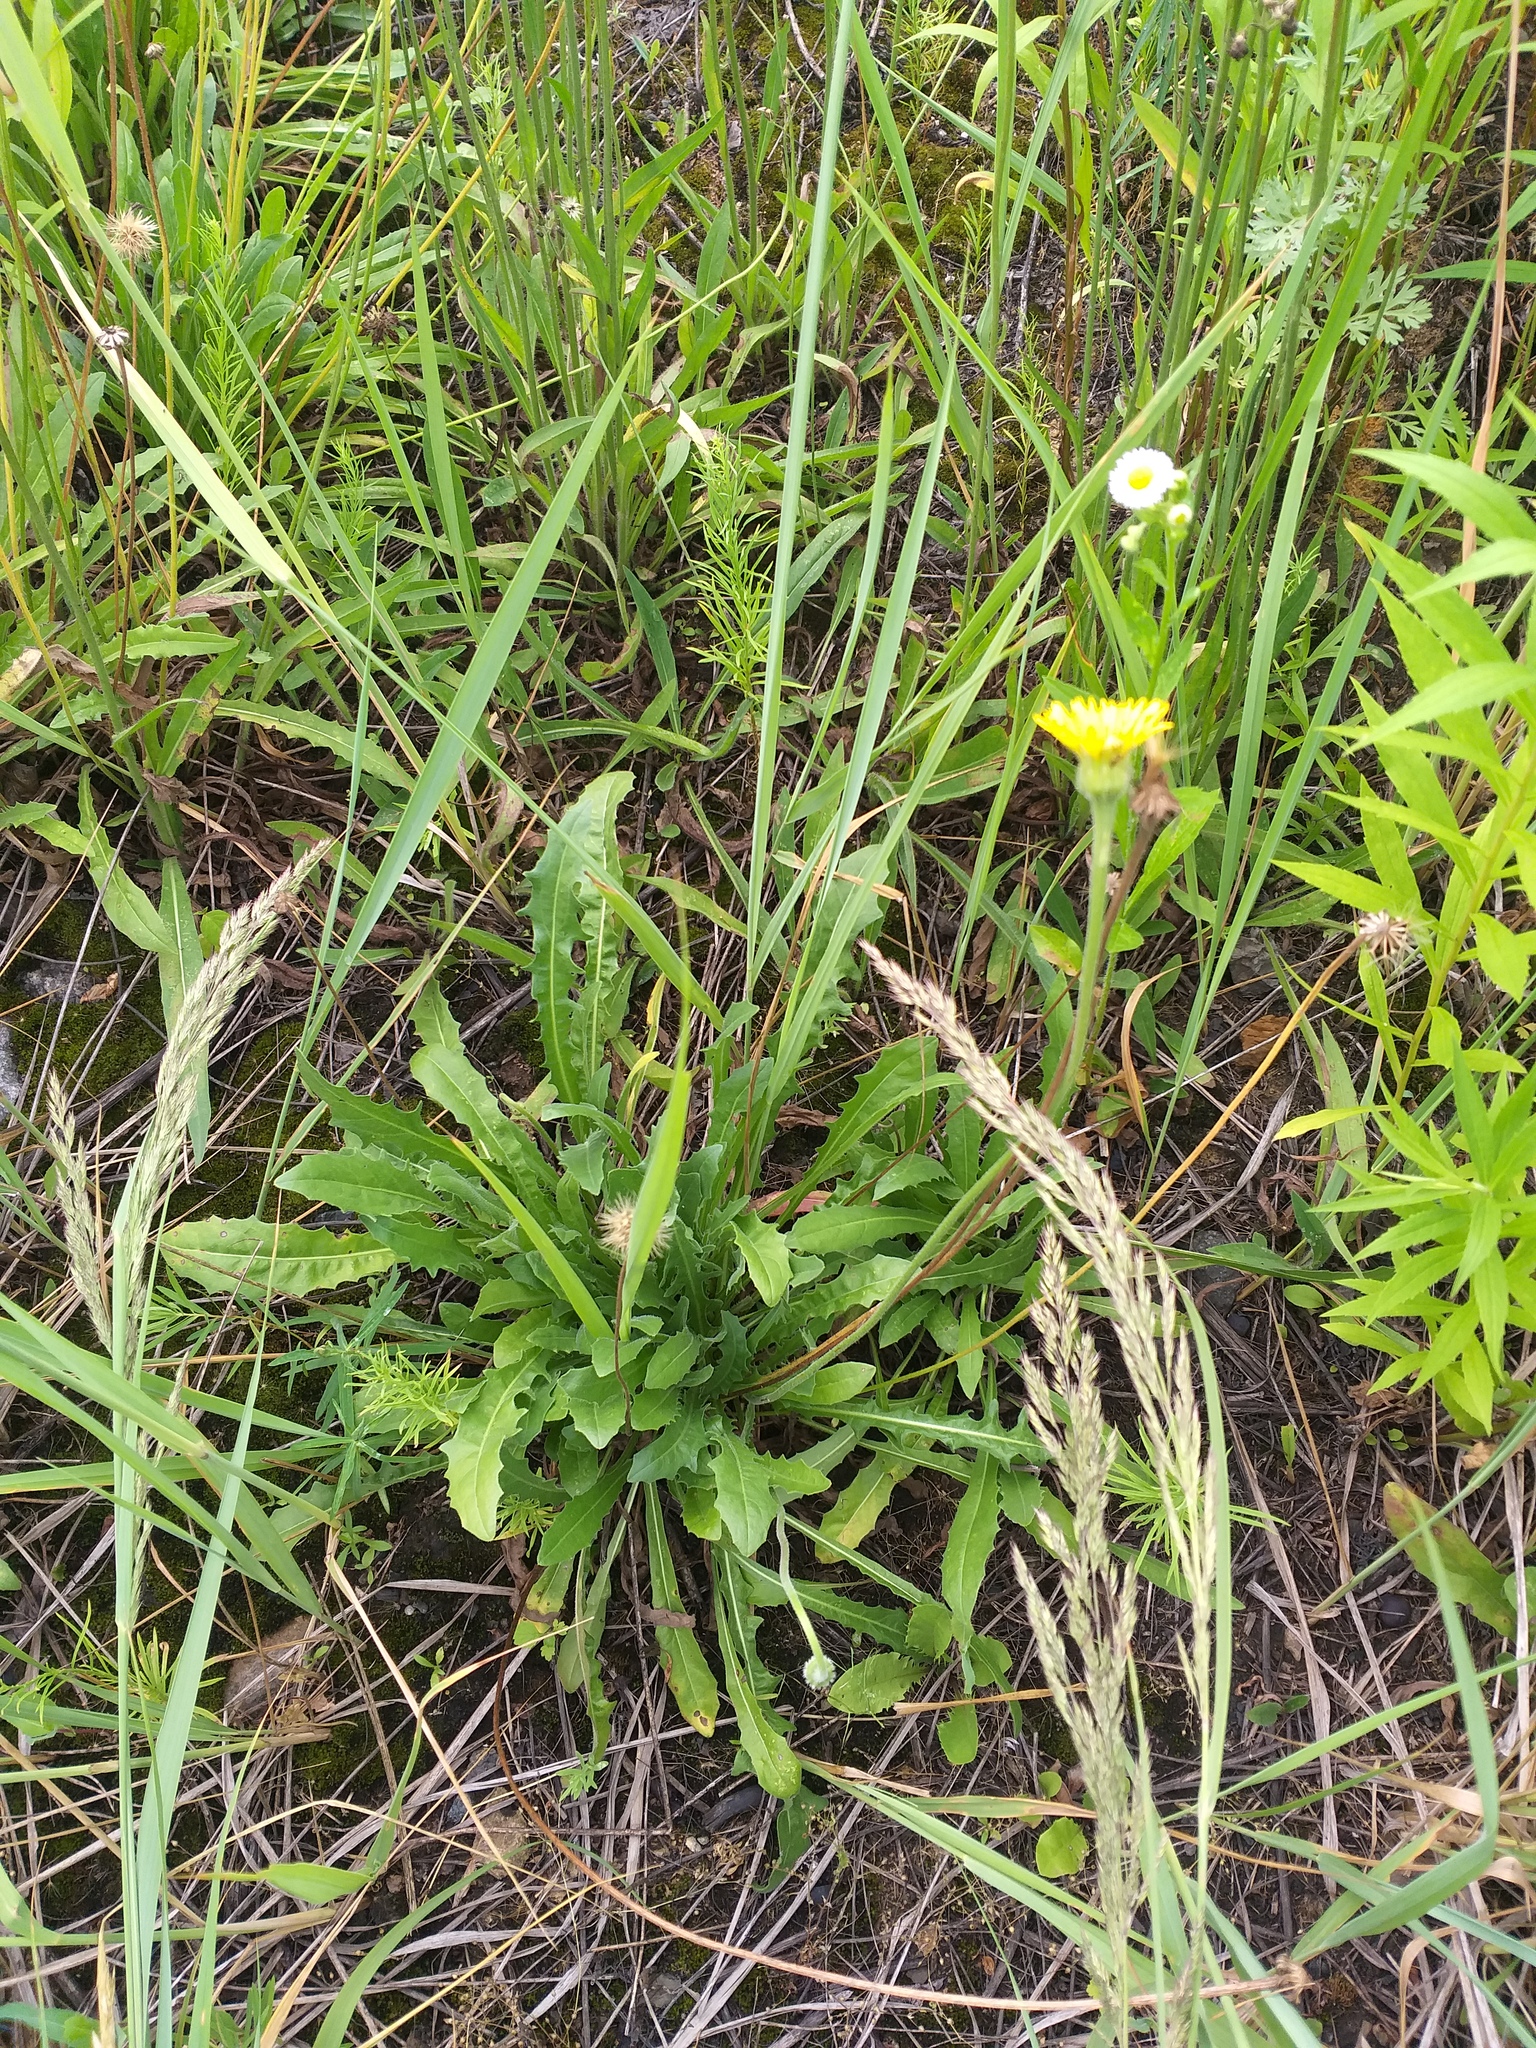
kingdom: Plantae
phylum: Tracheophyta
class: Magnoliopsida
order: Asterales
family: Asteraceae
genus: Leontodon
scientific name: Leontodon hispidus
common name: Rough hawkbit
